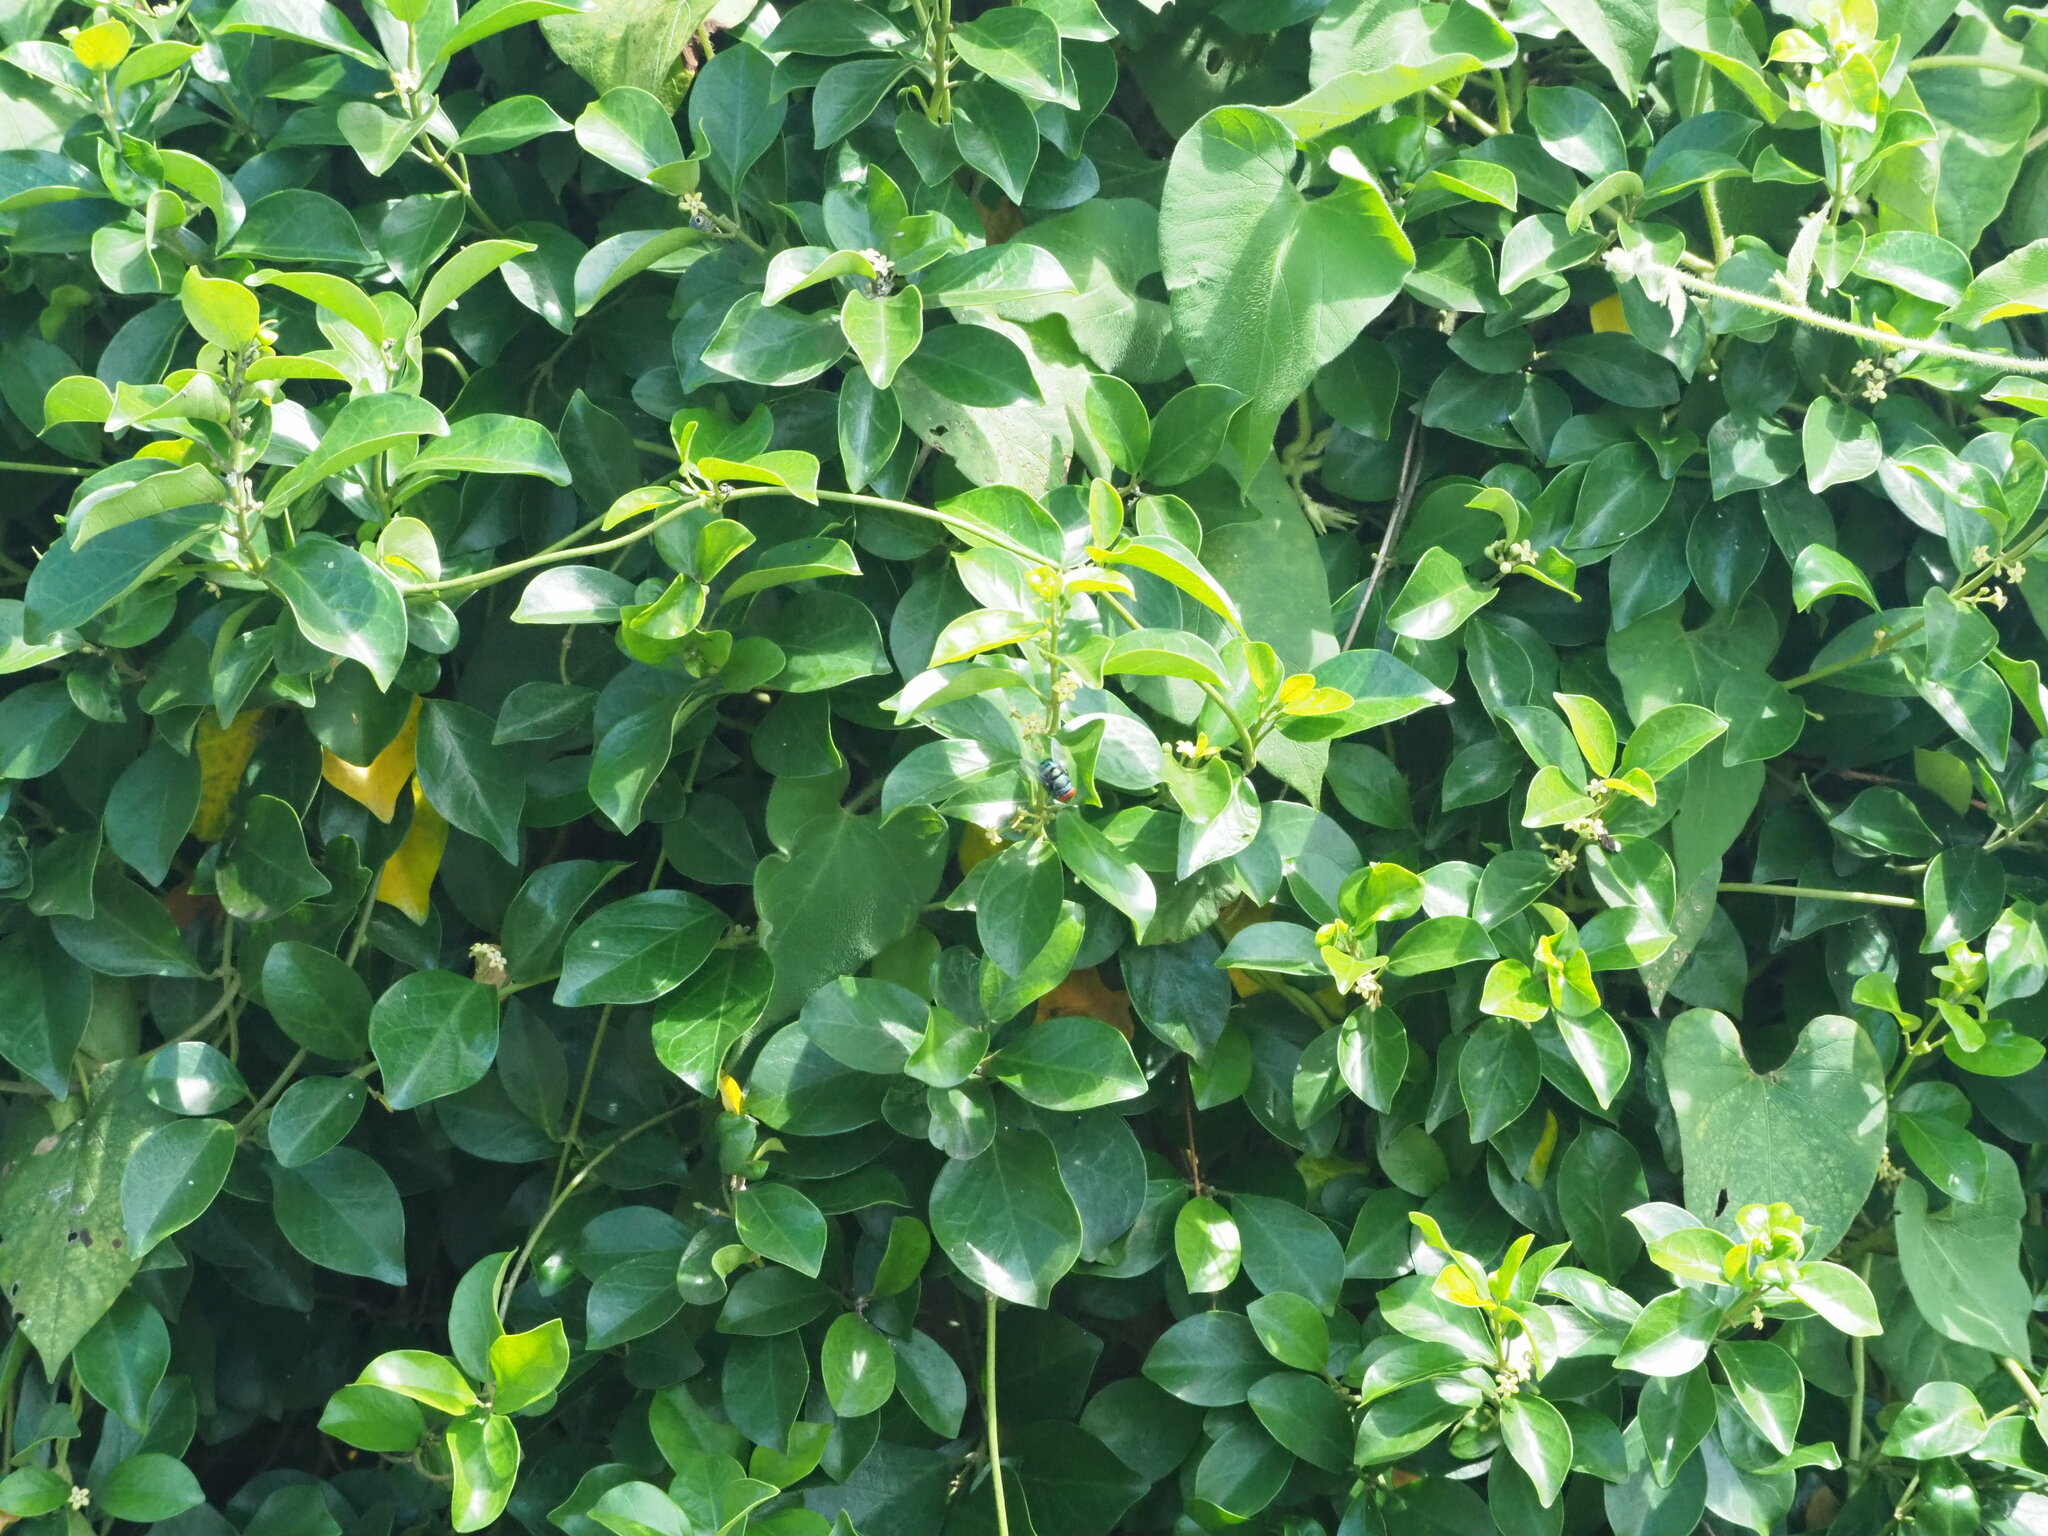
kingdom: Plantae
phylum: Tracheophyta
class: Magnoliopsida
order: Gentianales
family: Apocynaceae
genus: Gymnema
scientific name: Gymnema sylvestre
